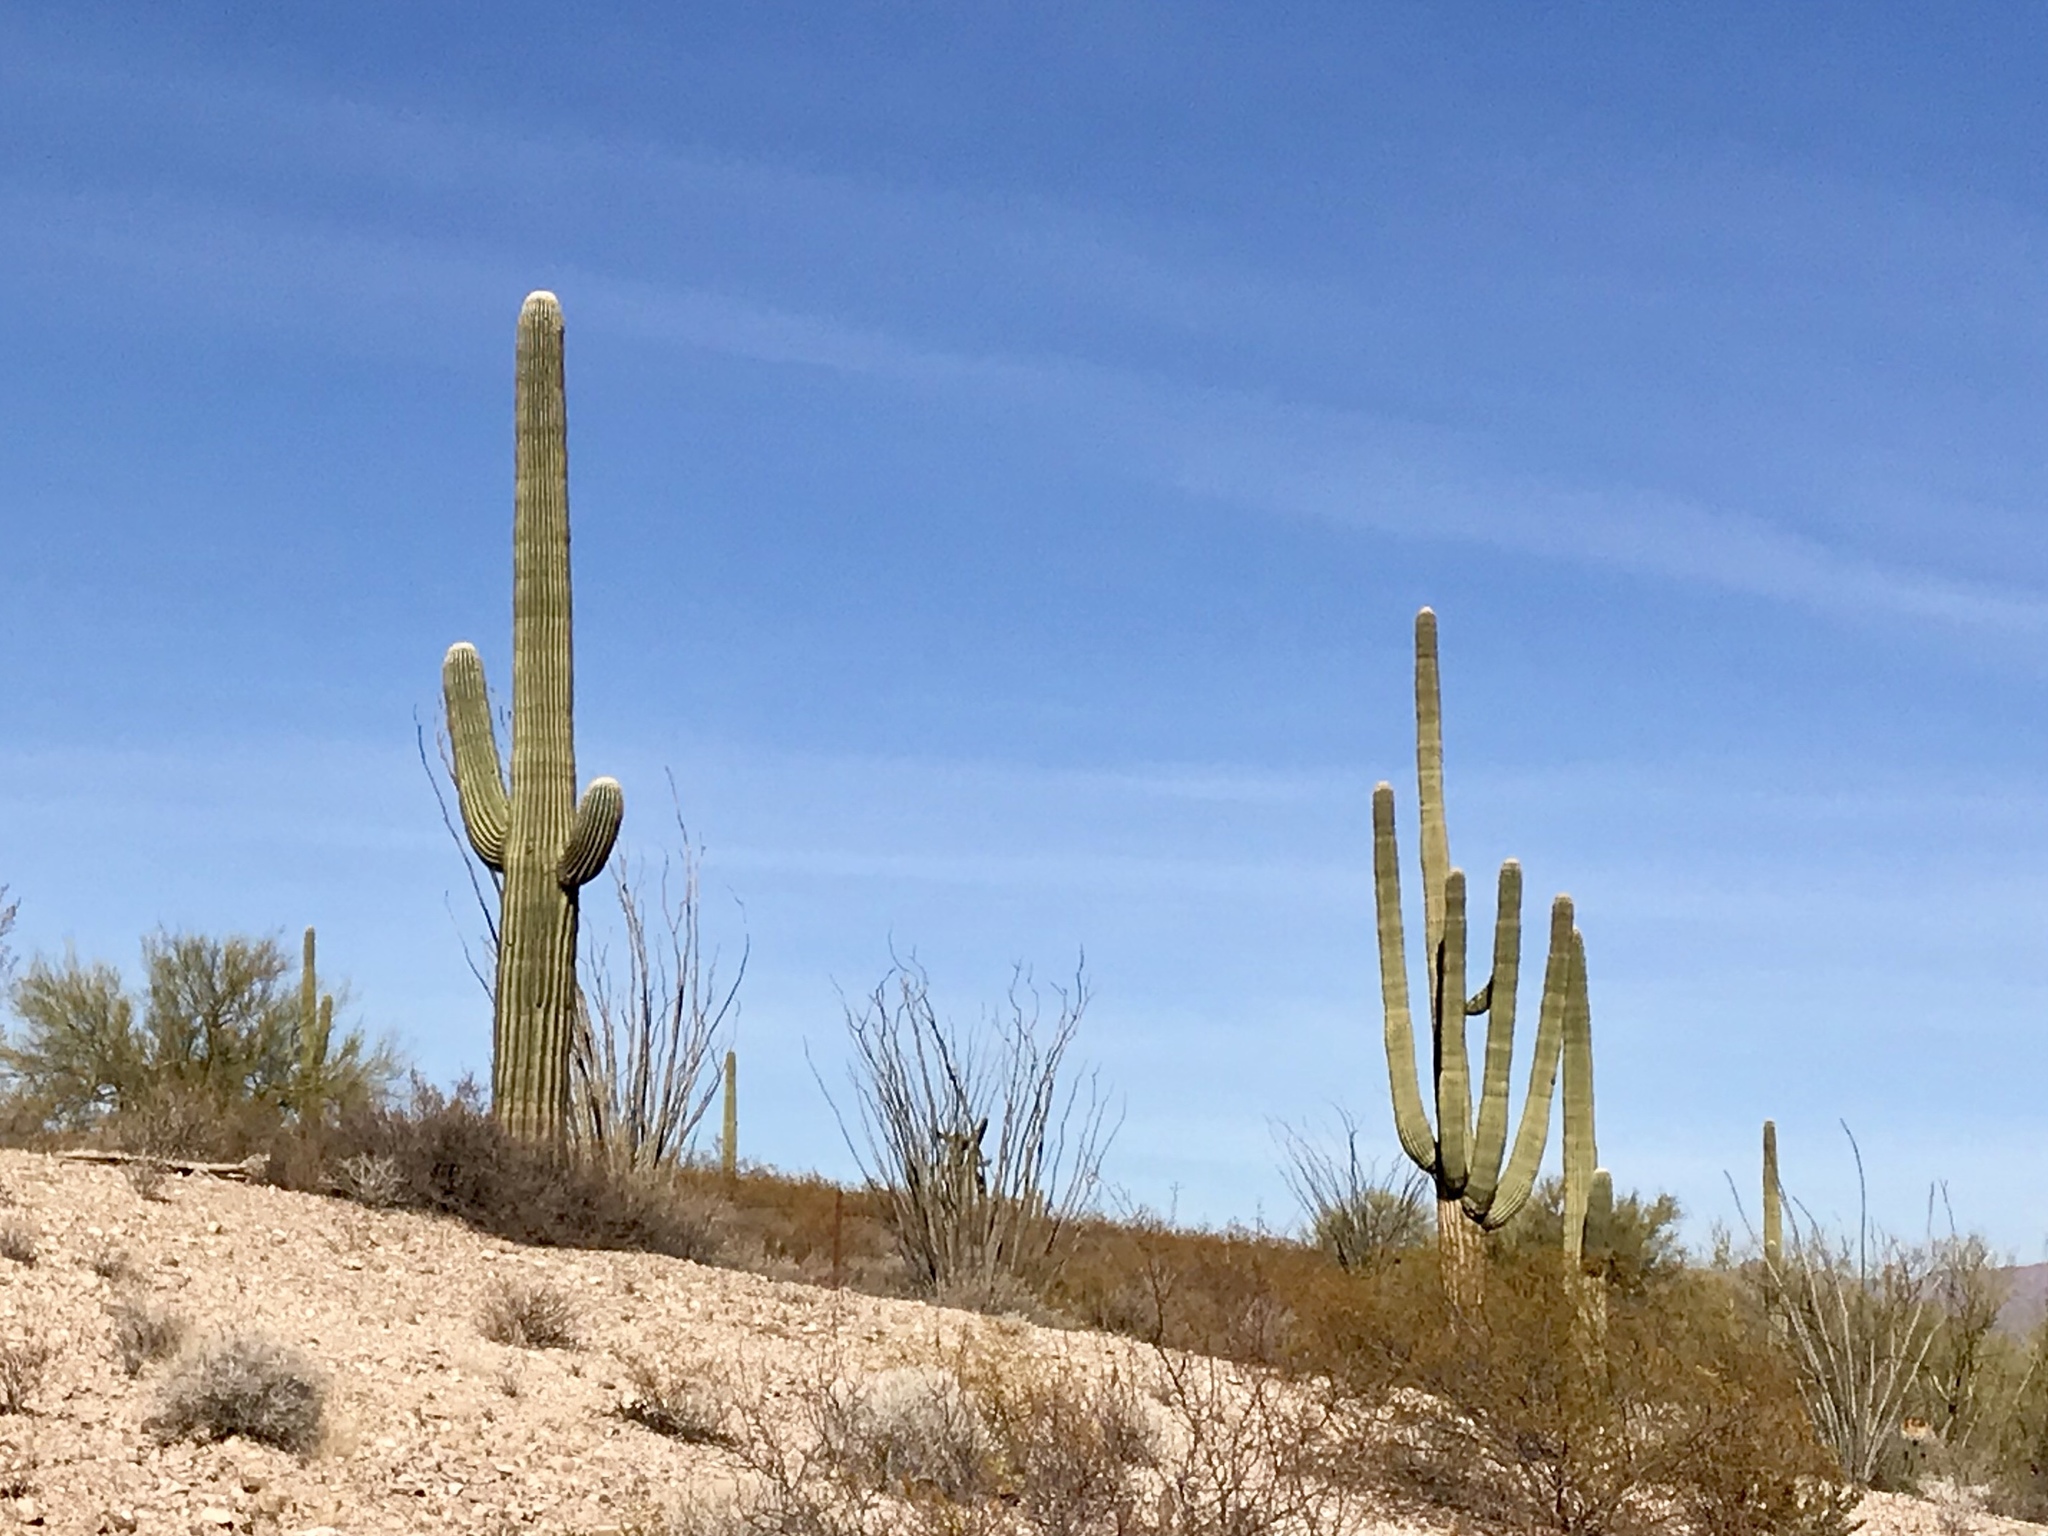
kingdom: Plantae
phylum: Tracheophyta
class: Magnoliopsida
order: Caryophyllales
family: Cactaceae
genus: Carnegiea
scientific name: Carnegiea gigantea
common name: Saguaro
